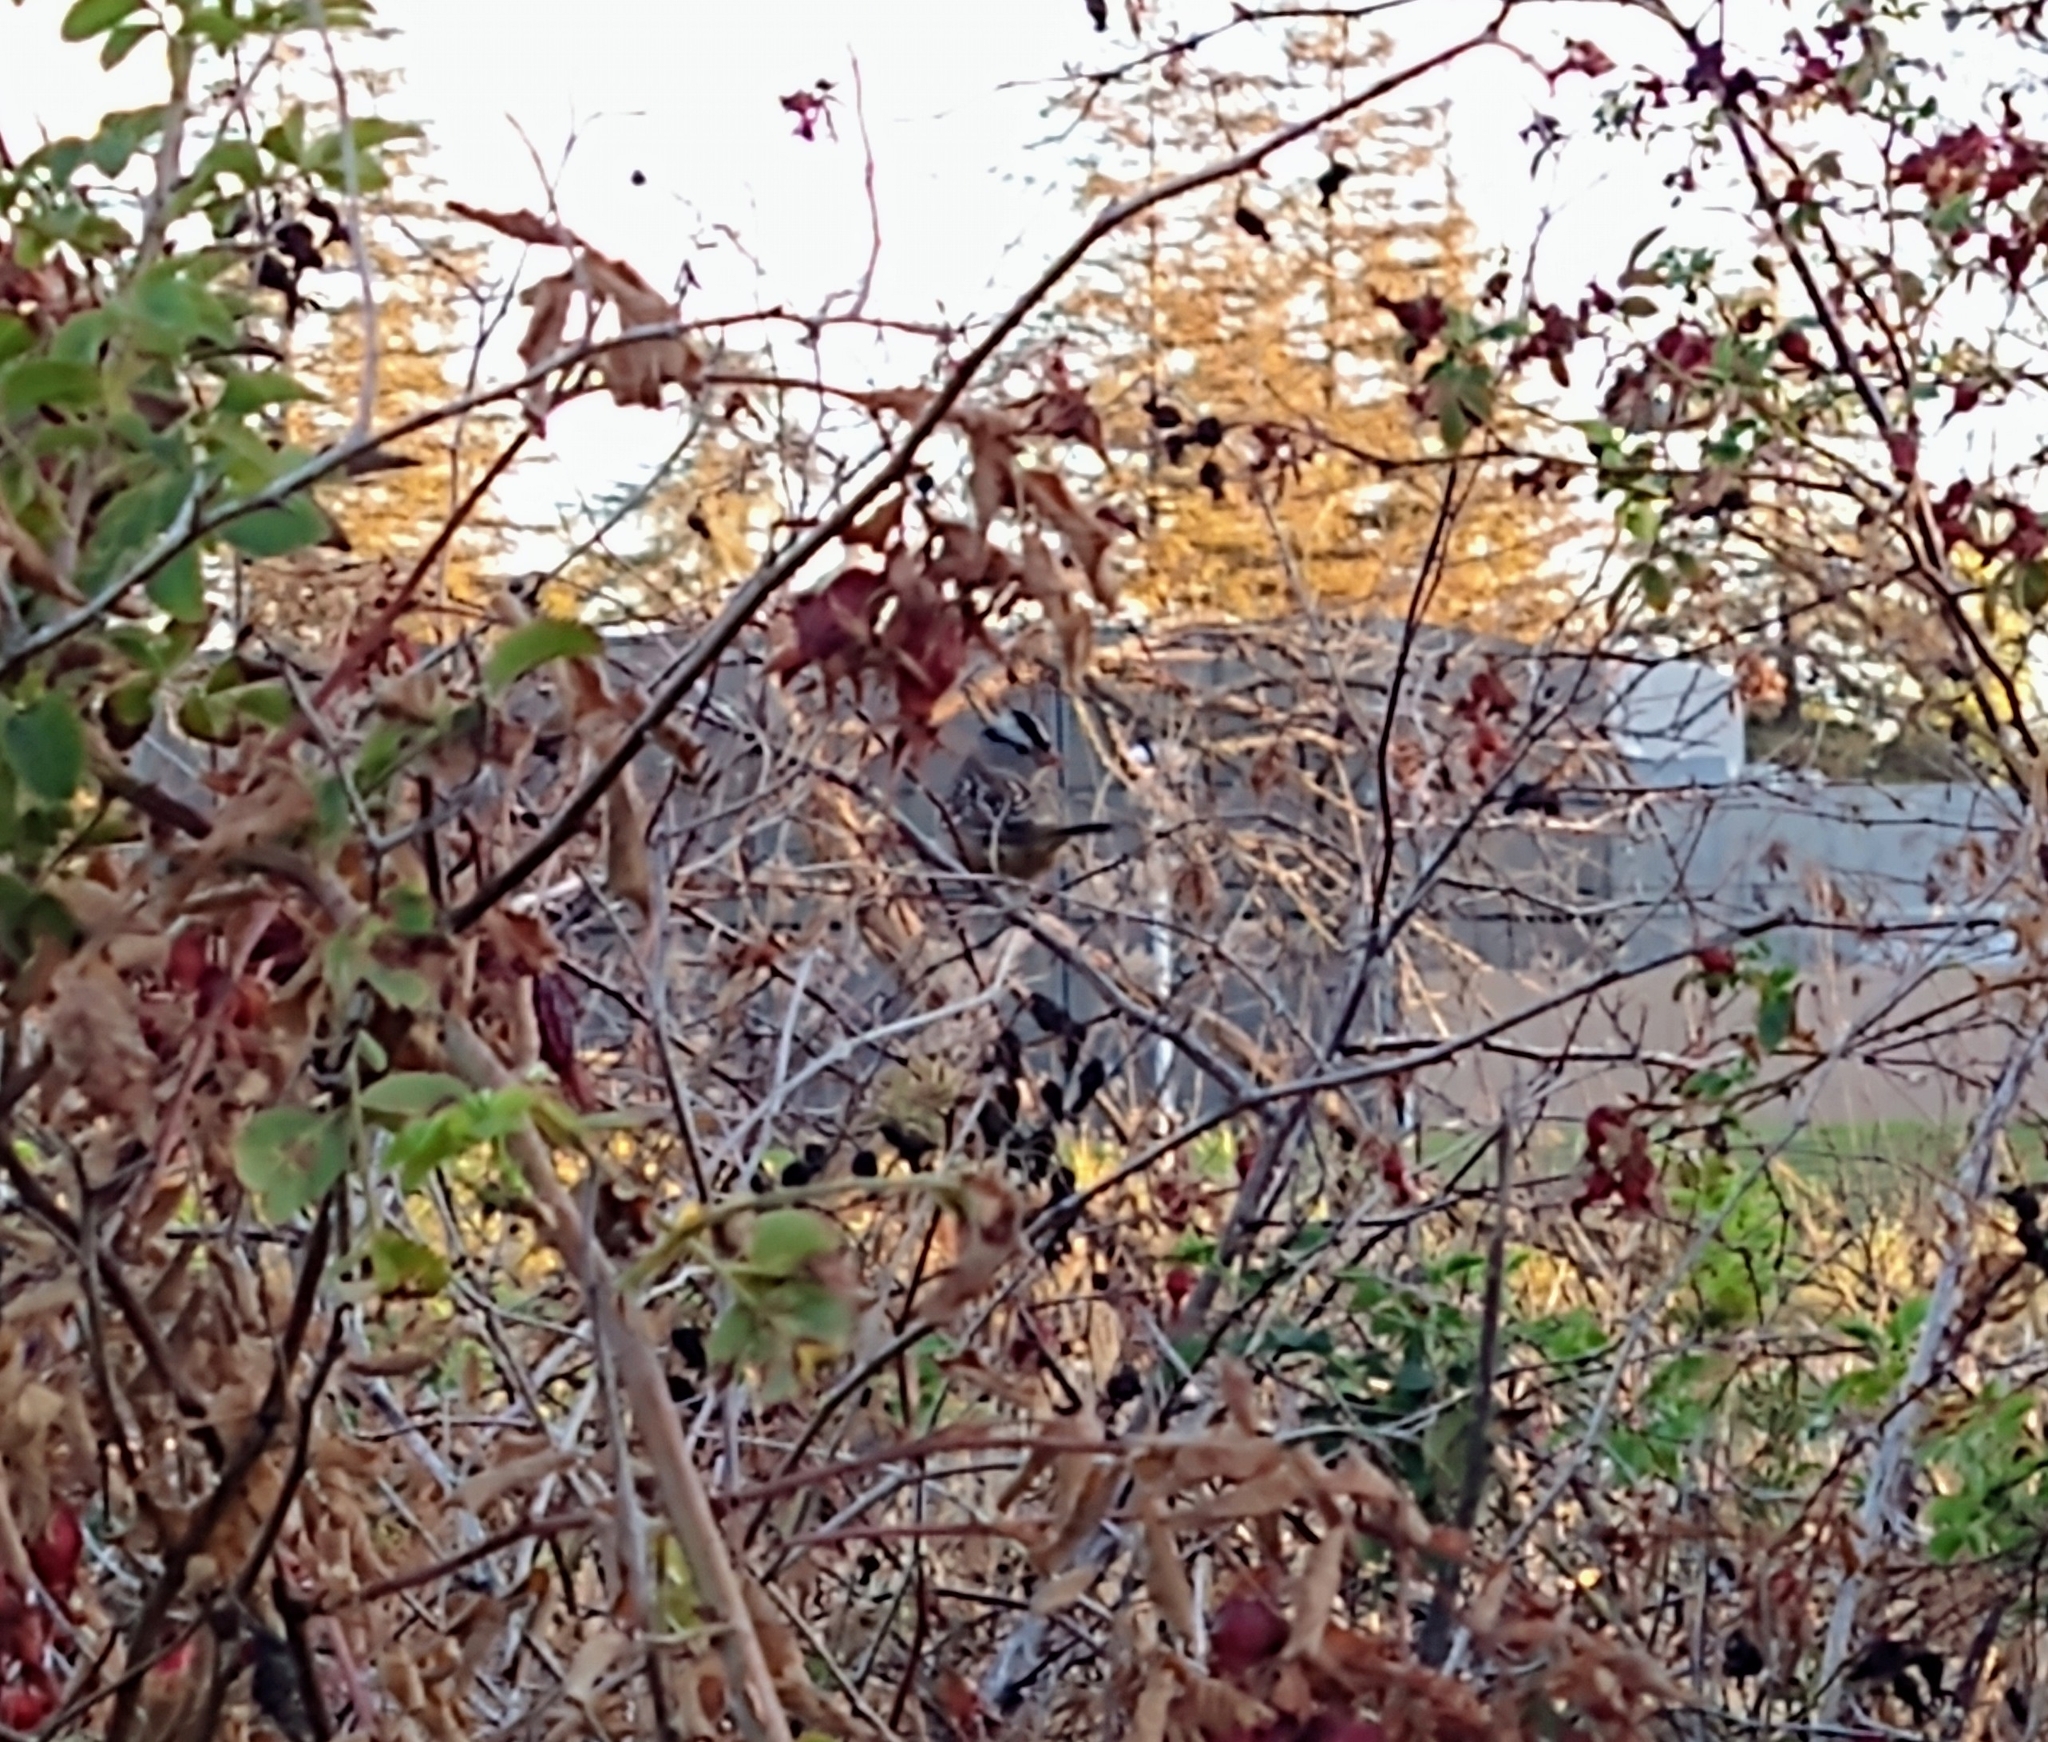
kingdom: Animalia
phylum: Chordata
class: Aves
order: Passeriformes
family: Passerellidae
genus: Zonotrichia
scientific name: Zonotrichia leucophrys
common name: White-crowned sparrow
